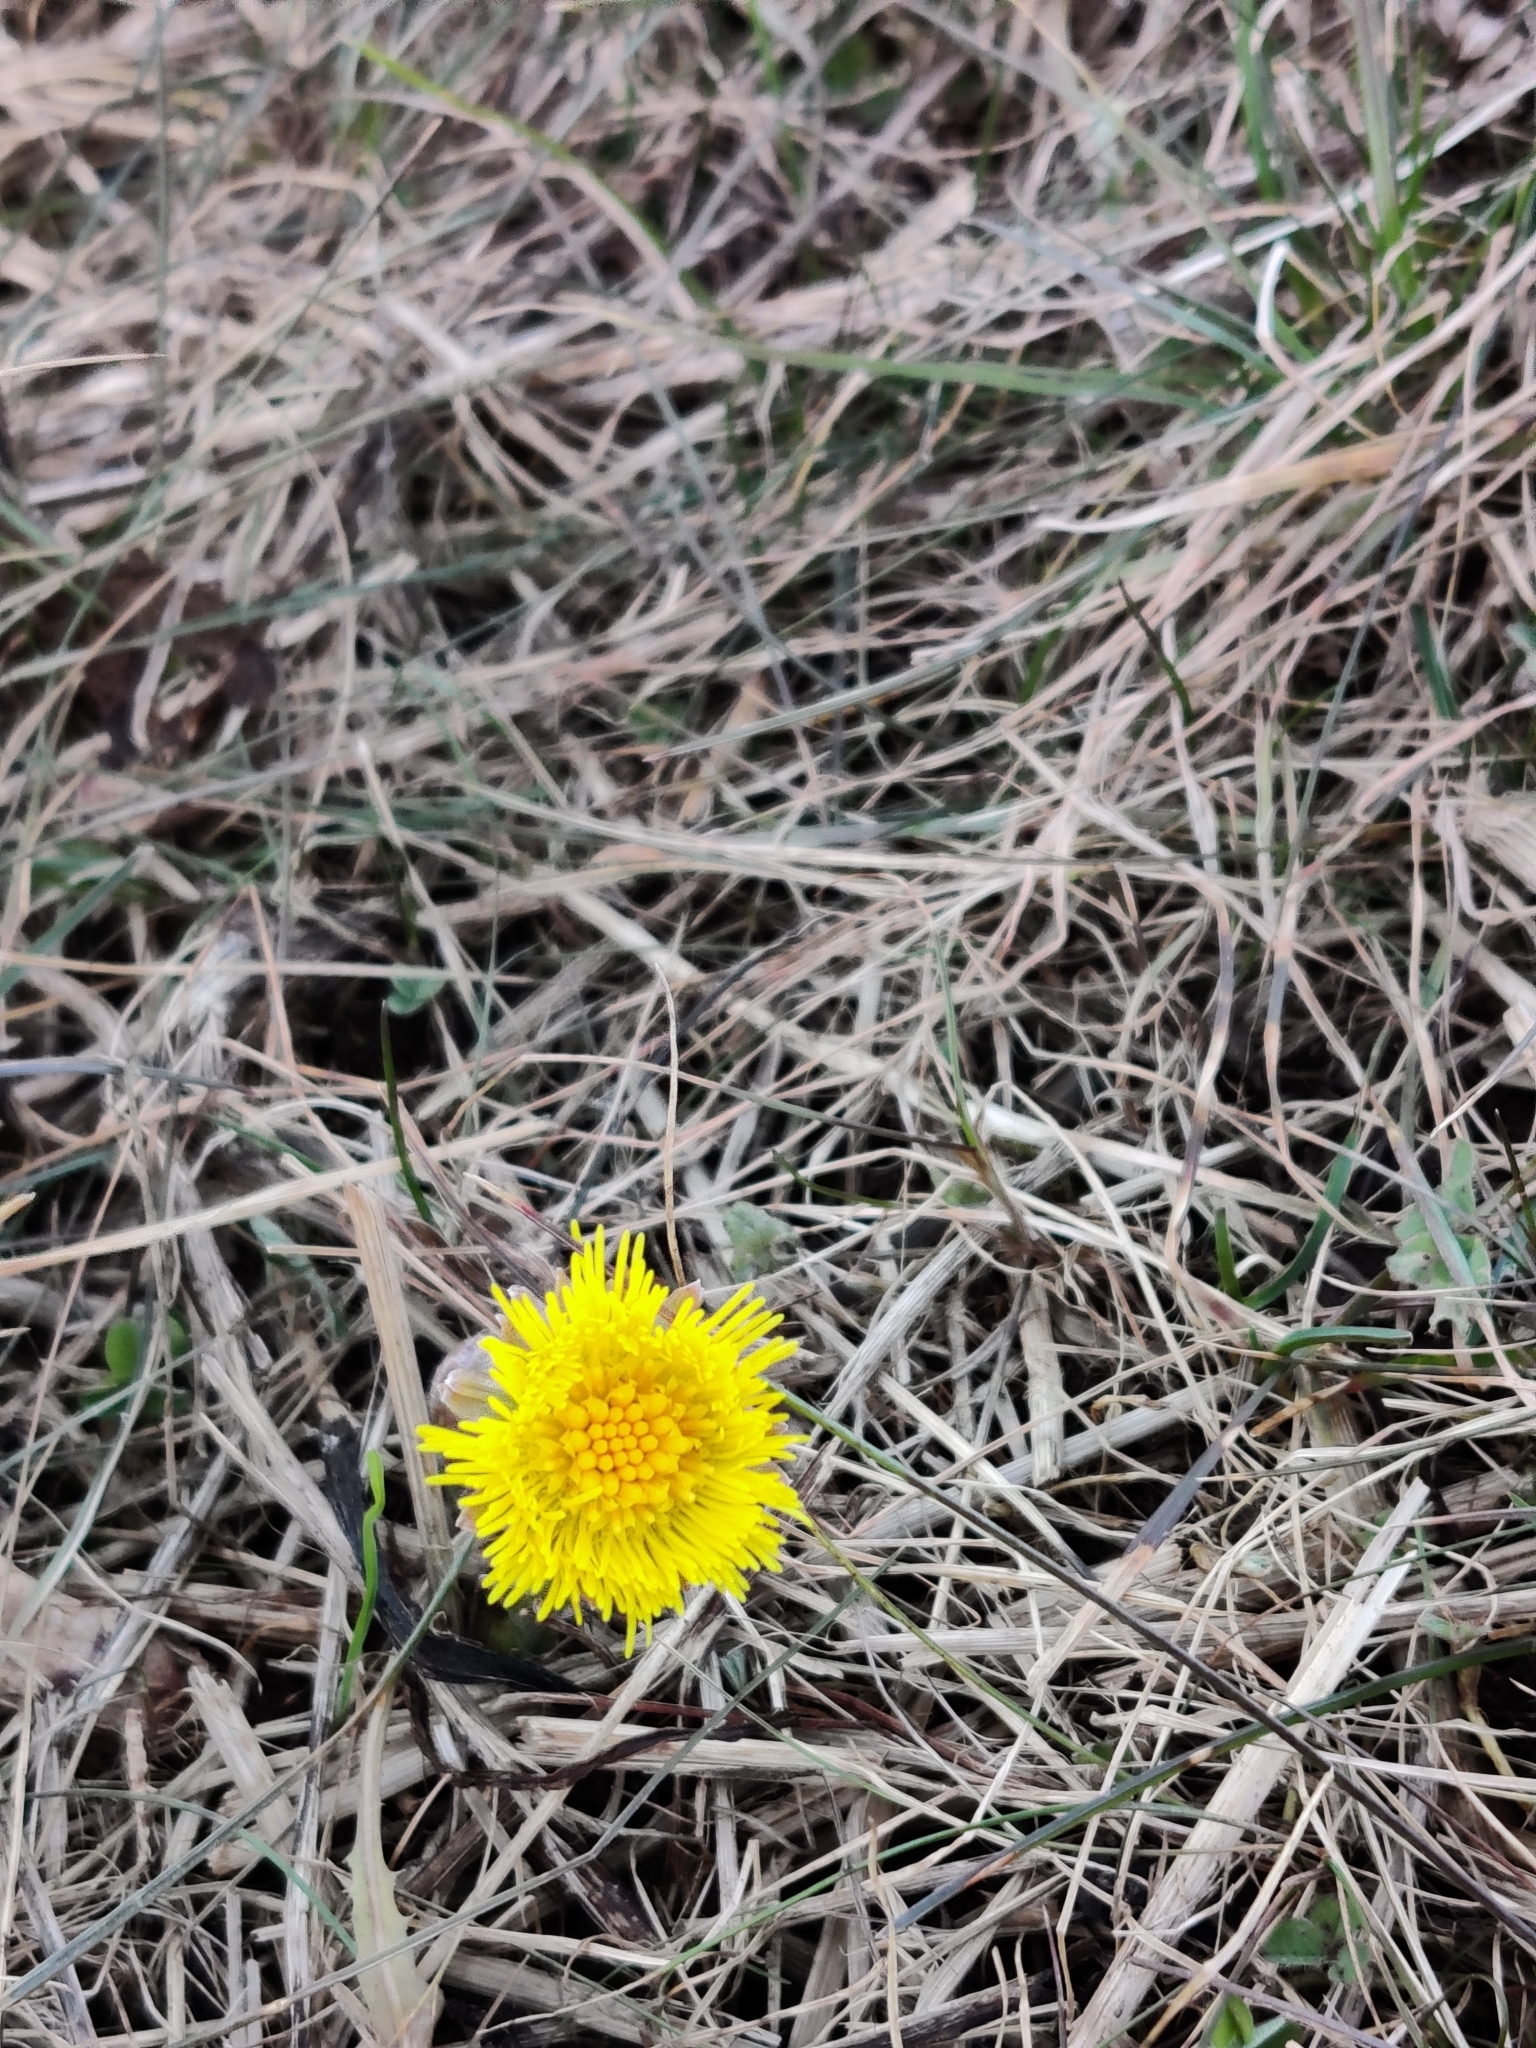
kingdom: Plantae
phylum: Tracheophyta
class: Magnoliopsida
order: Asterales
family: Asteraceae
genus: Tussilago
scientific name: Tussilago farfara
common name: Coltsfoot
